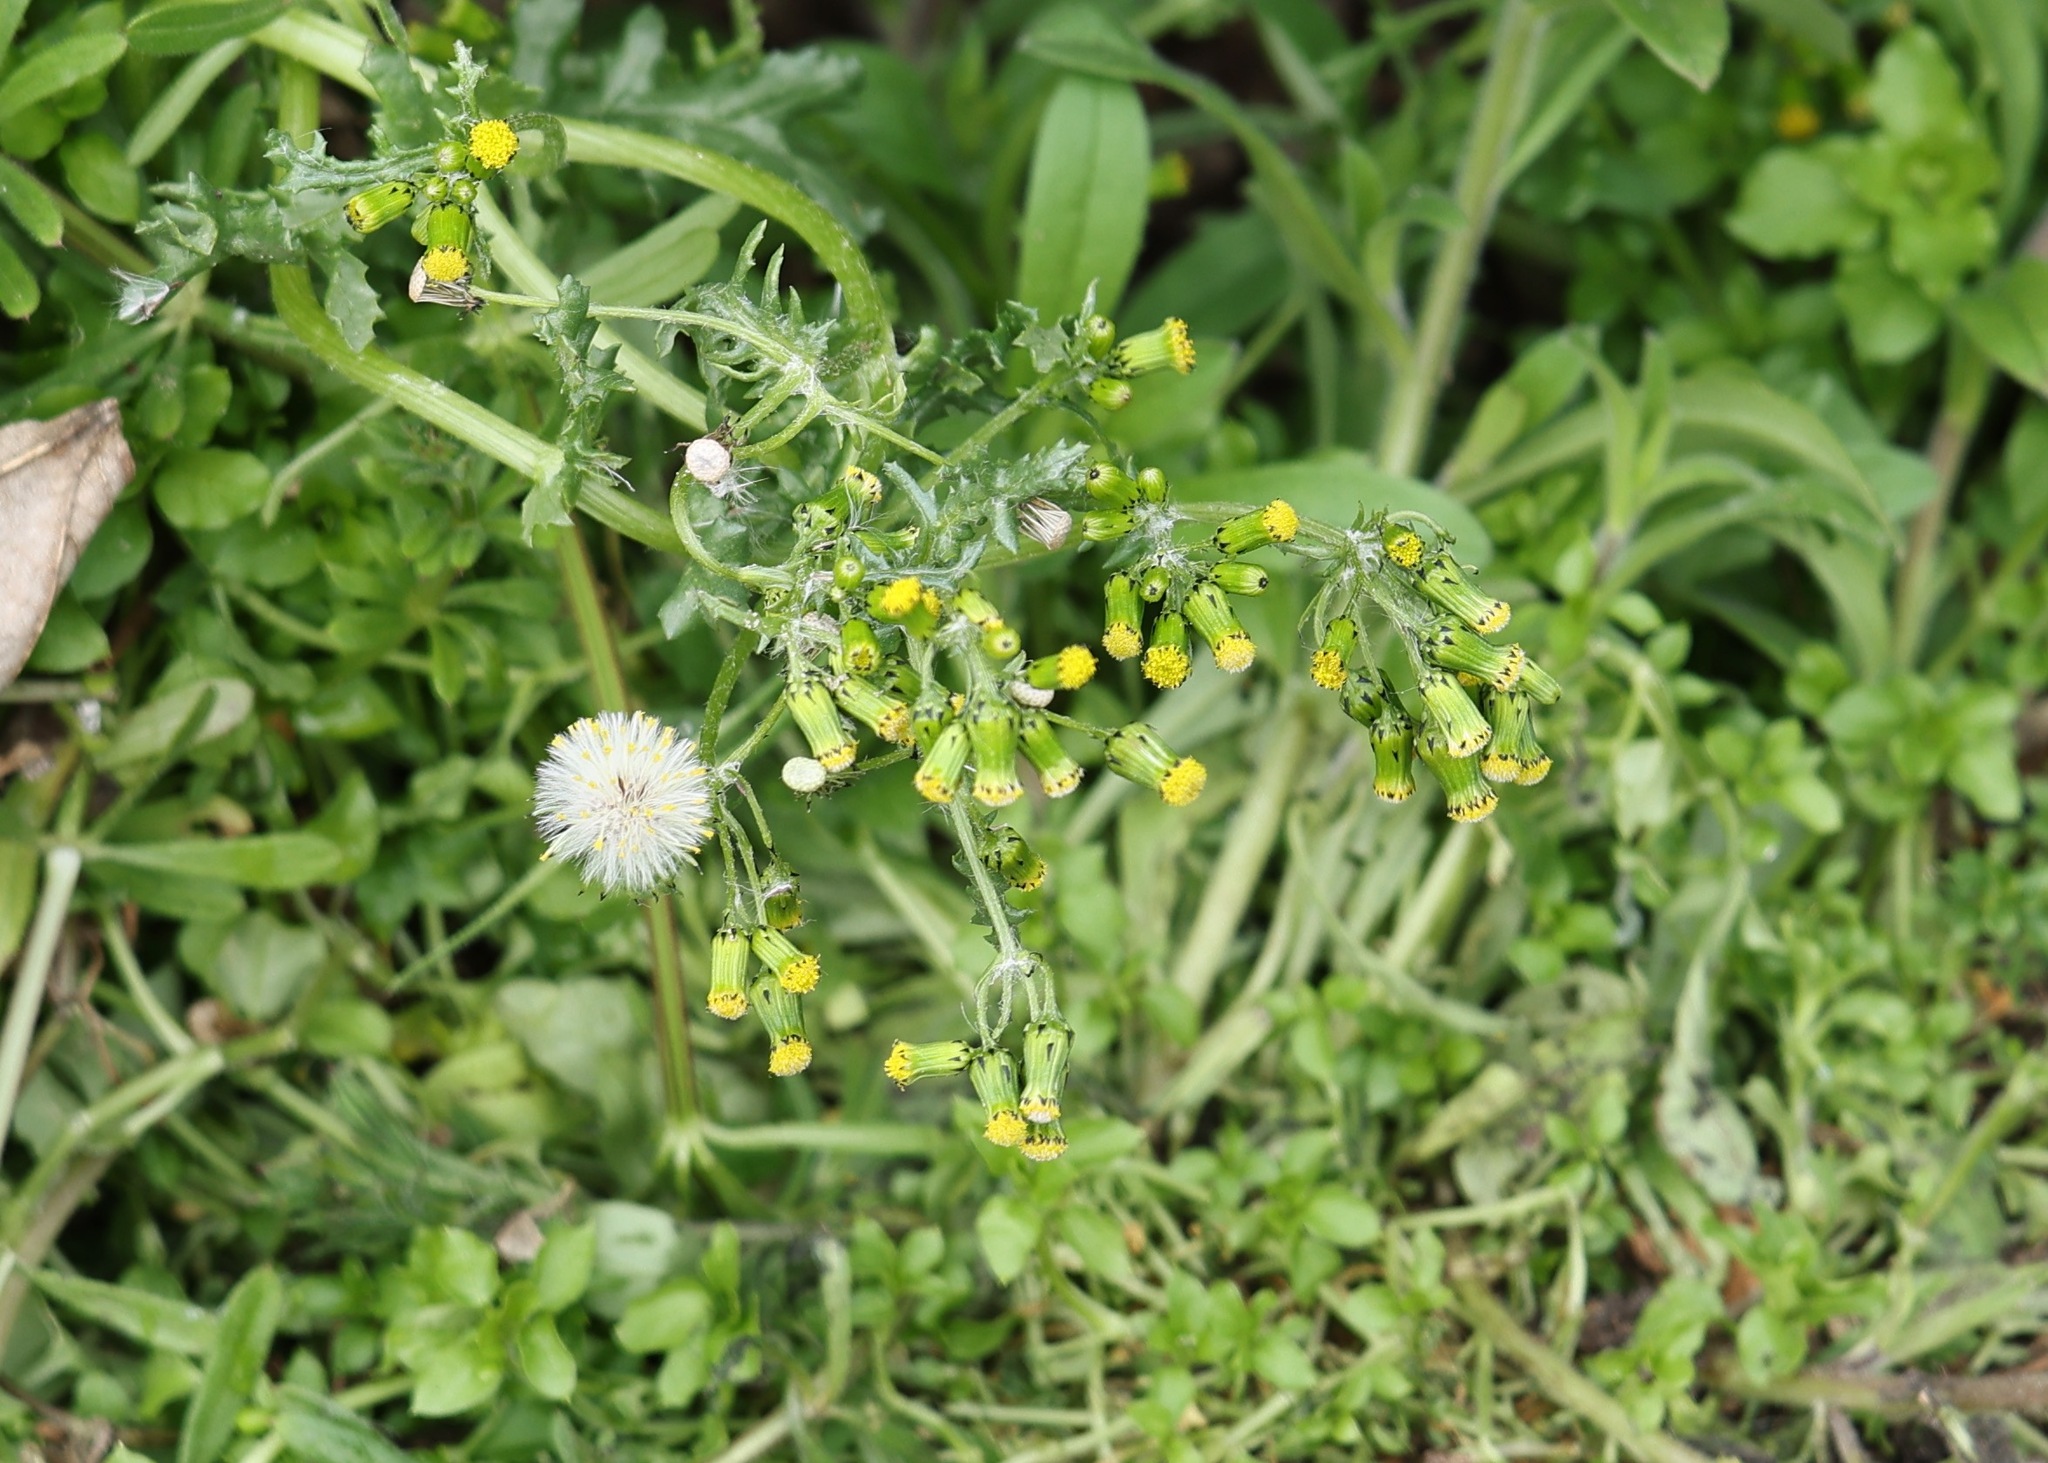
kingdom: Plantae
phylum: Tracheophyta
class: Magnoliopsida
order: Asterales
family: Asteraceae
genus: Senecio
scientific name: Senecio vulgaris
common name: Old-man-in-the-spring
